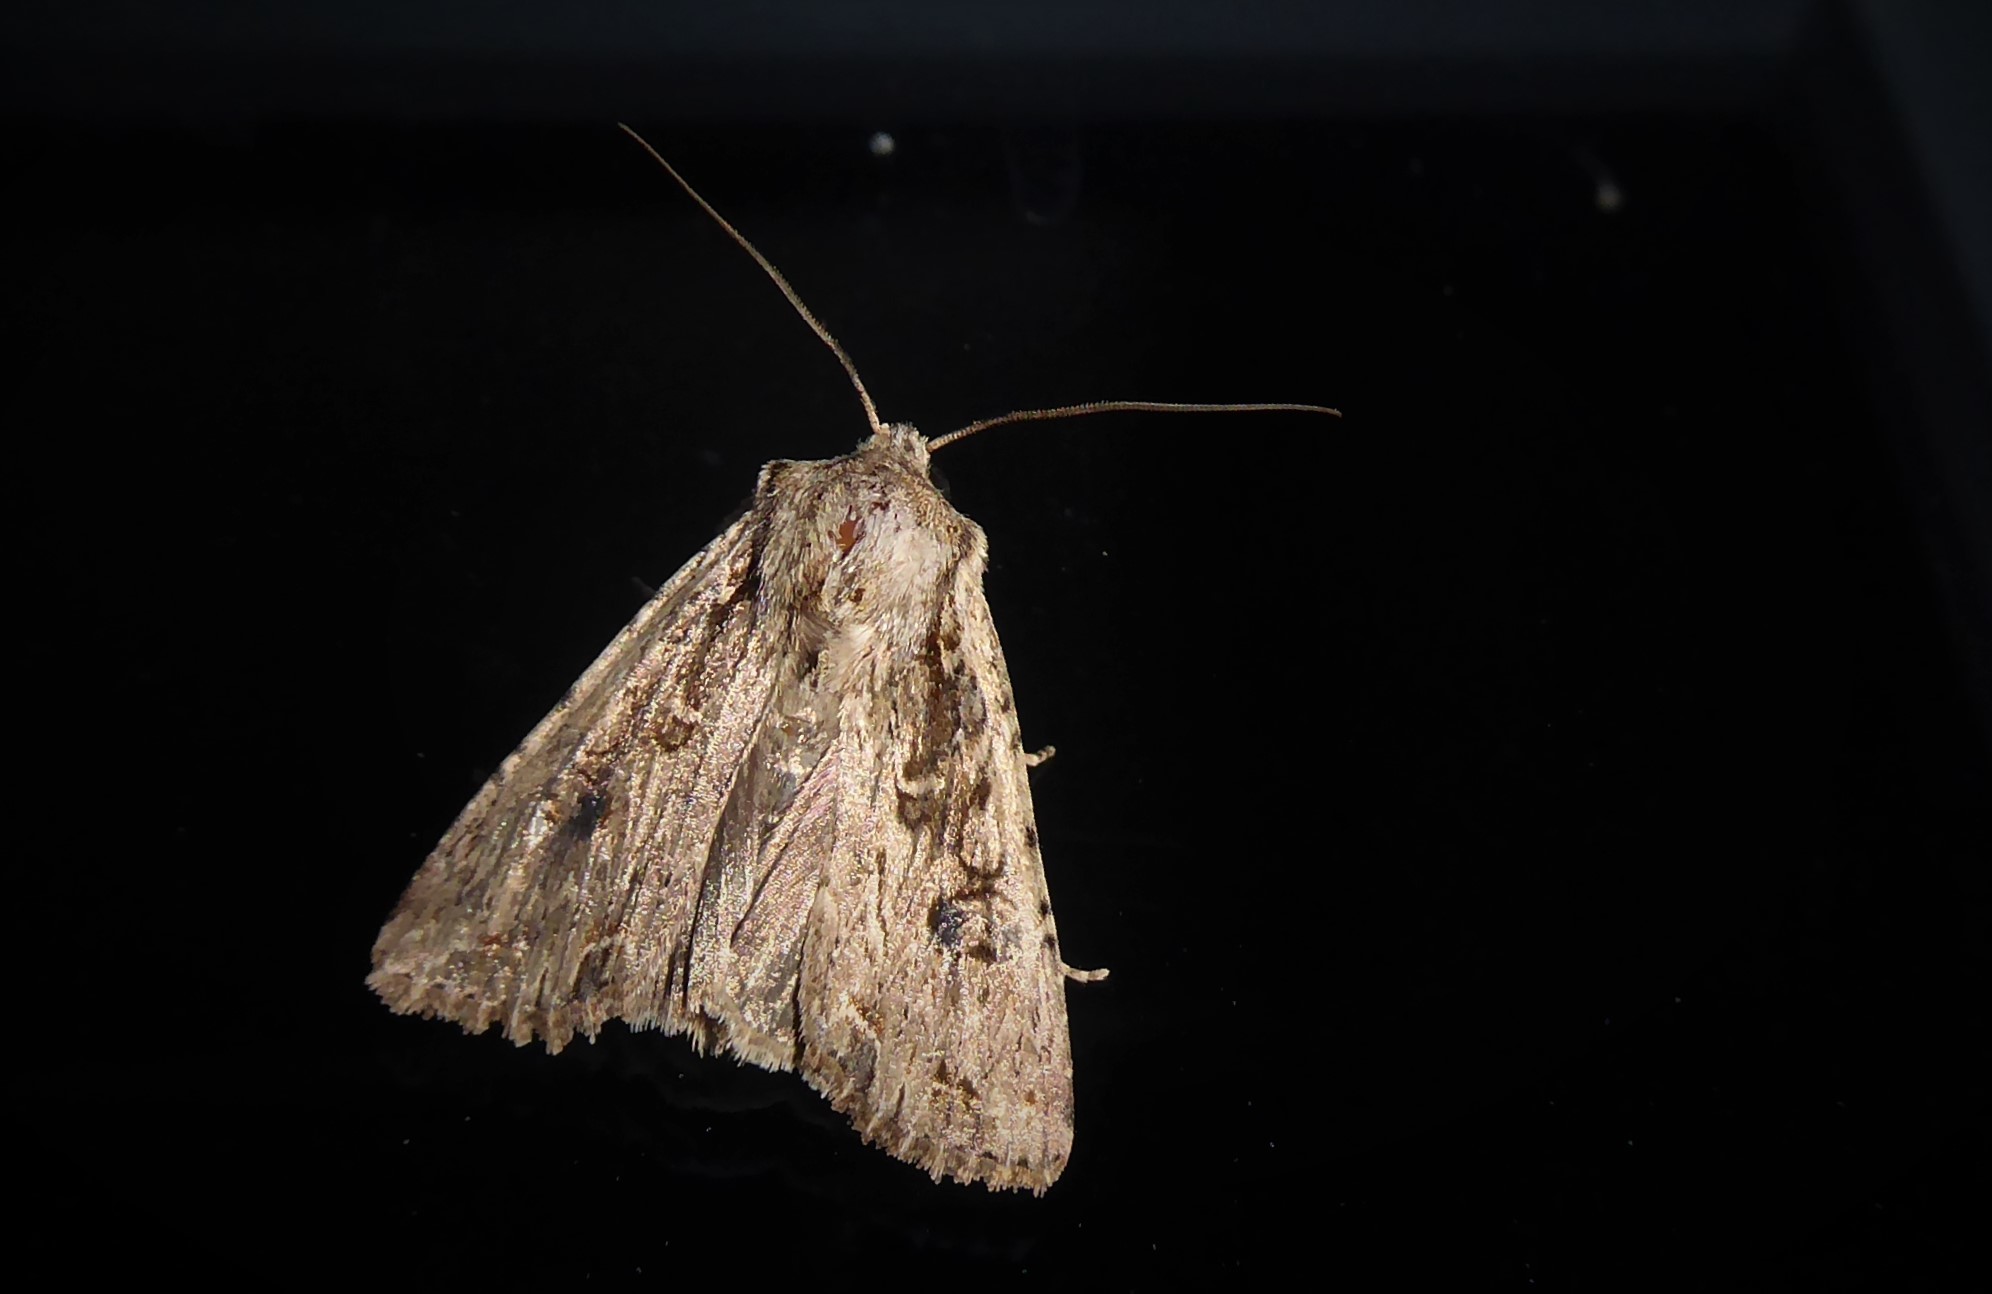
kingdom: Animalia
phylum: Arthropoda
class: Insecta
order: Lepidoptera
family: Noctuidae
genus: Ichneutica
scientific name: Ichneutica lignana
